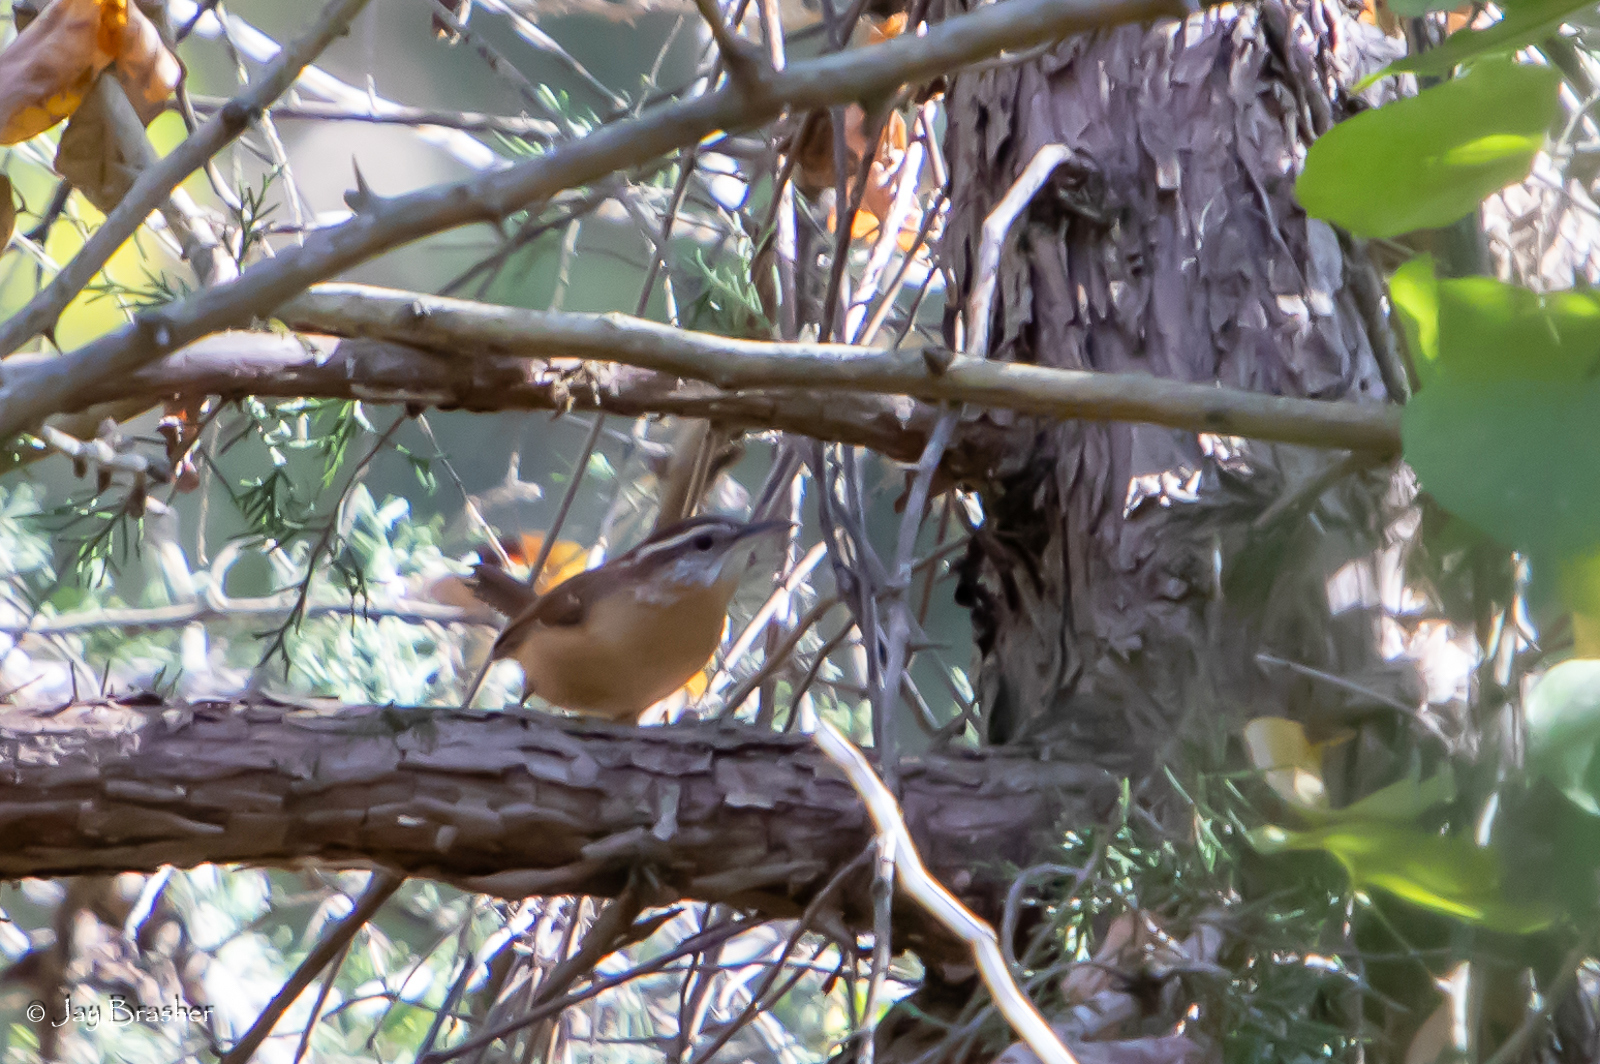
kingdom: Animalia
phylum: Chordata
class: Aves
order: Passeriformes
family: Troglodytidae
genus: Thryothorus
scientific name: Thryothorus ludovicianus
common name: Carolina wren
